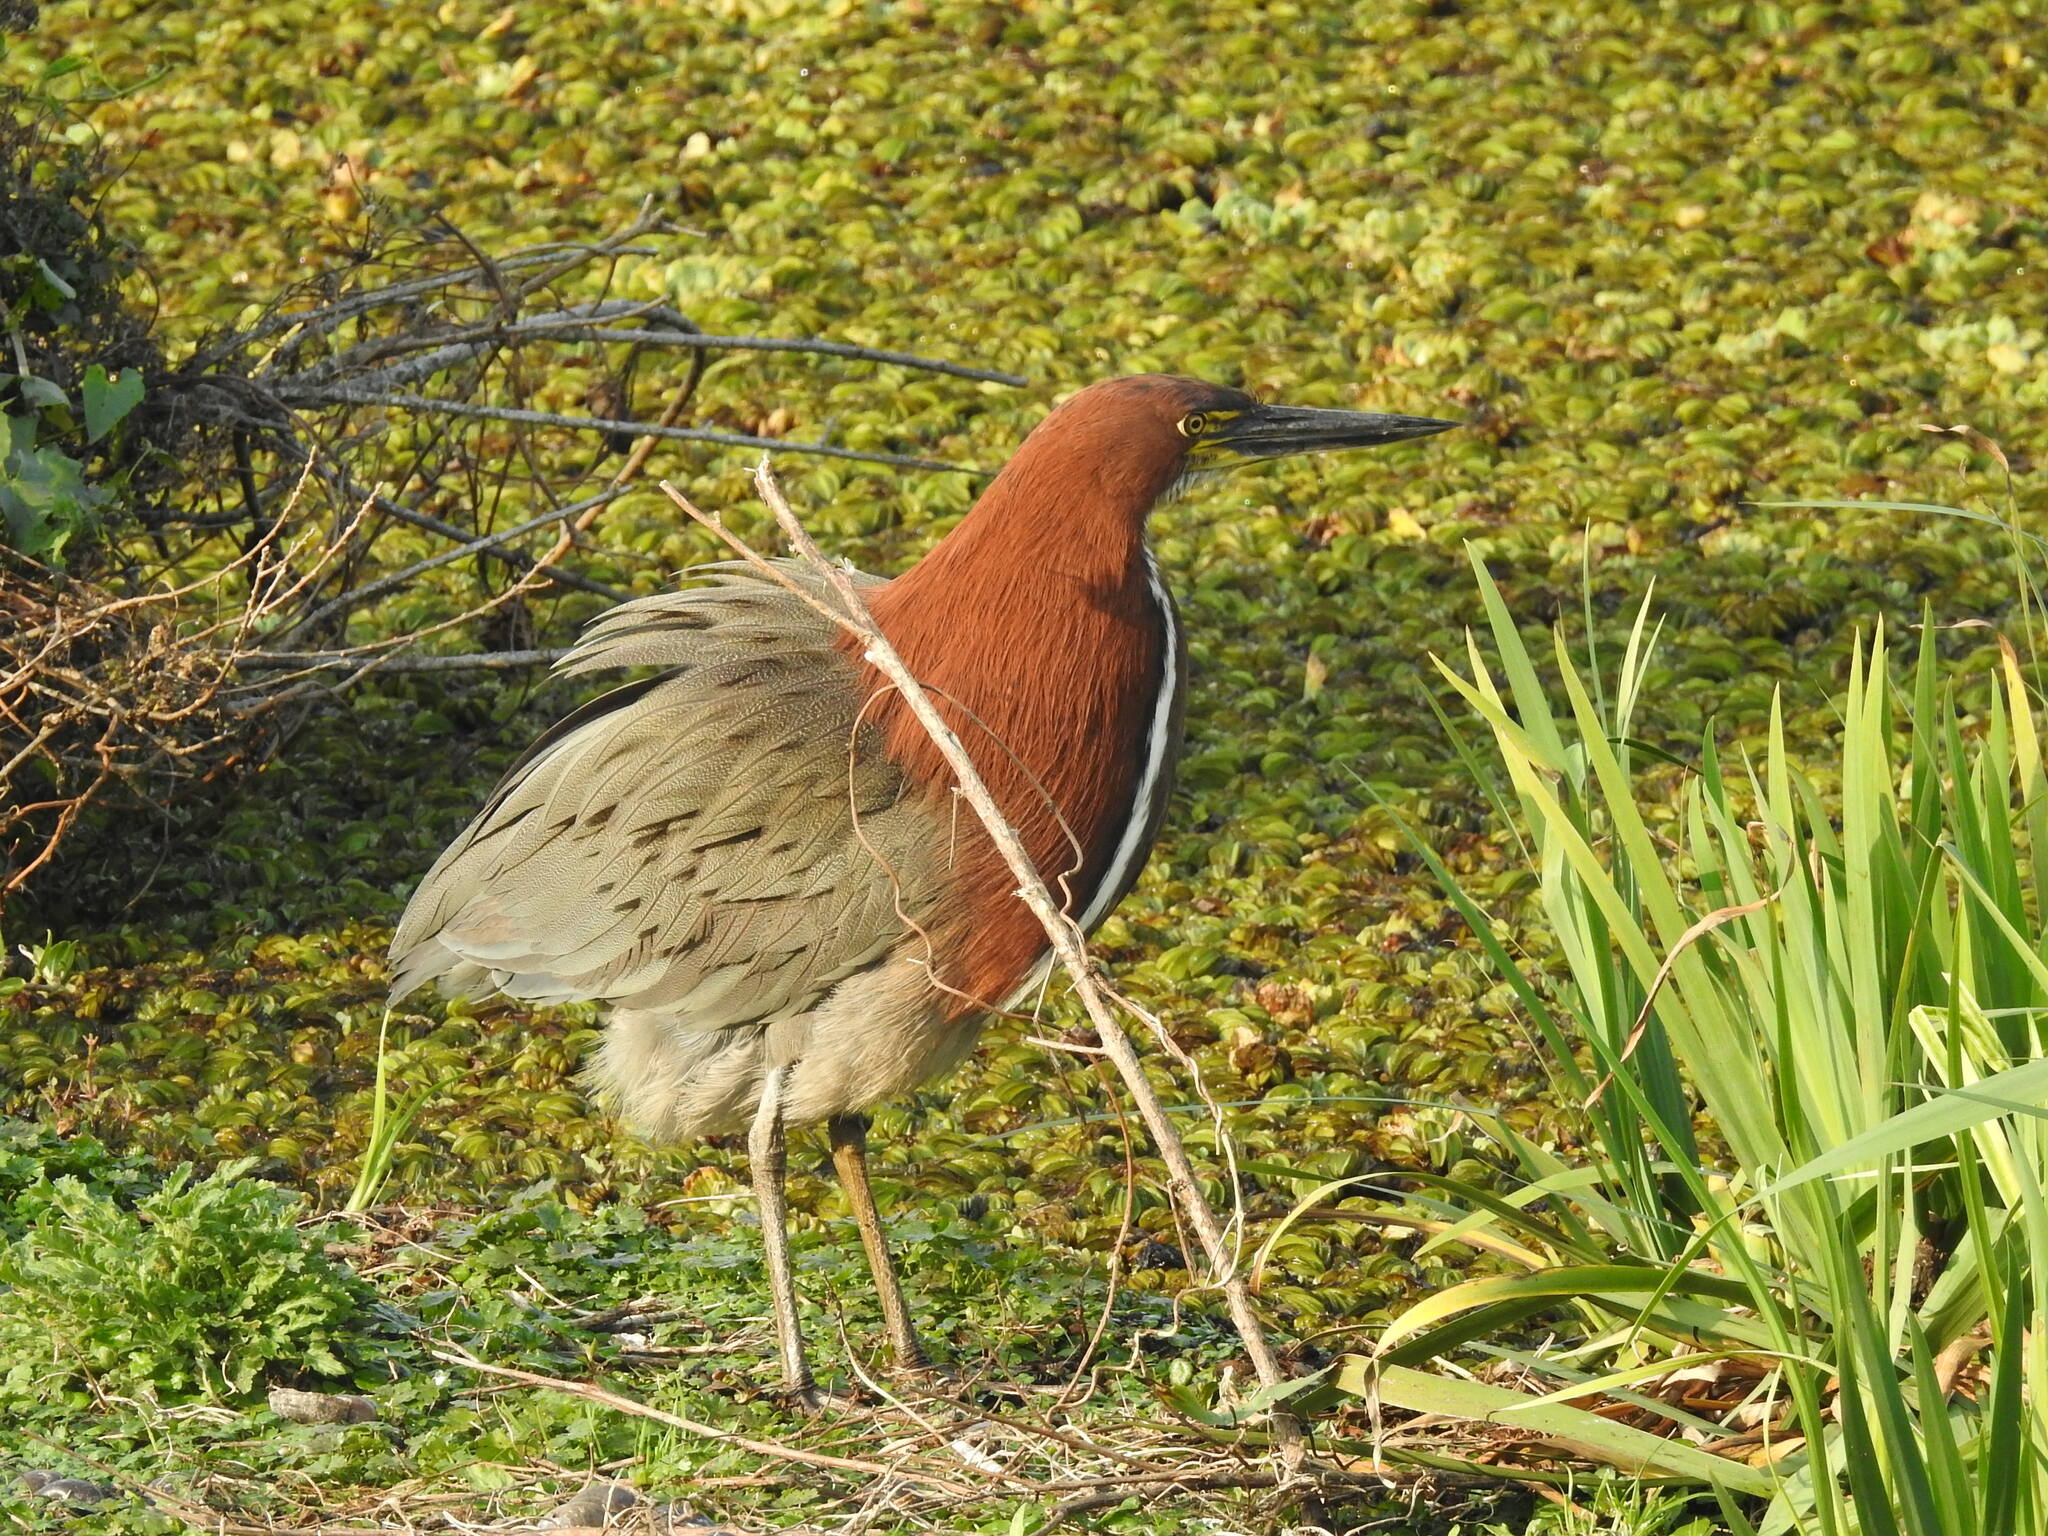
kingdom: Animalia
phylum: Chordata
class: Aves
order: Pelecaniformes
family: Ardeidae
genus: Tigrisoma
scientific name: Tigrisoma lineatum
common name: Rufescent tiger-heron
